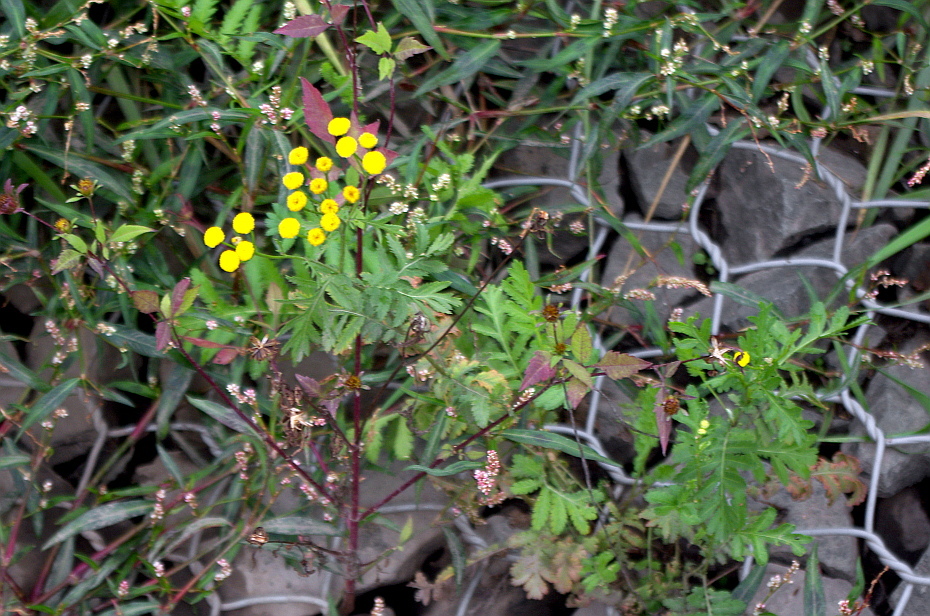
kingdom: Plantae
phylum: Tracheophyta
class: Magnoliopsida
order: Asterales
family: Asteraceae
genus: Tanacetum
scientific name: Tanacetum vulgare
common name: Common tansy
